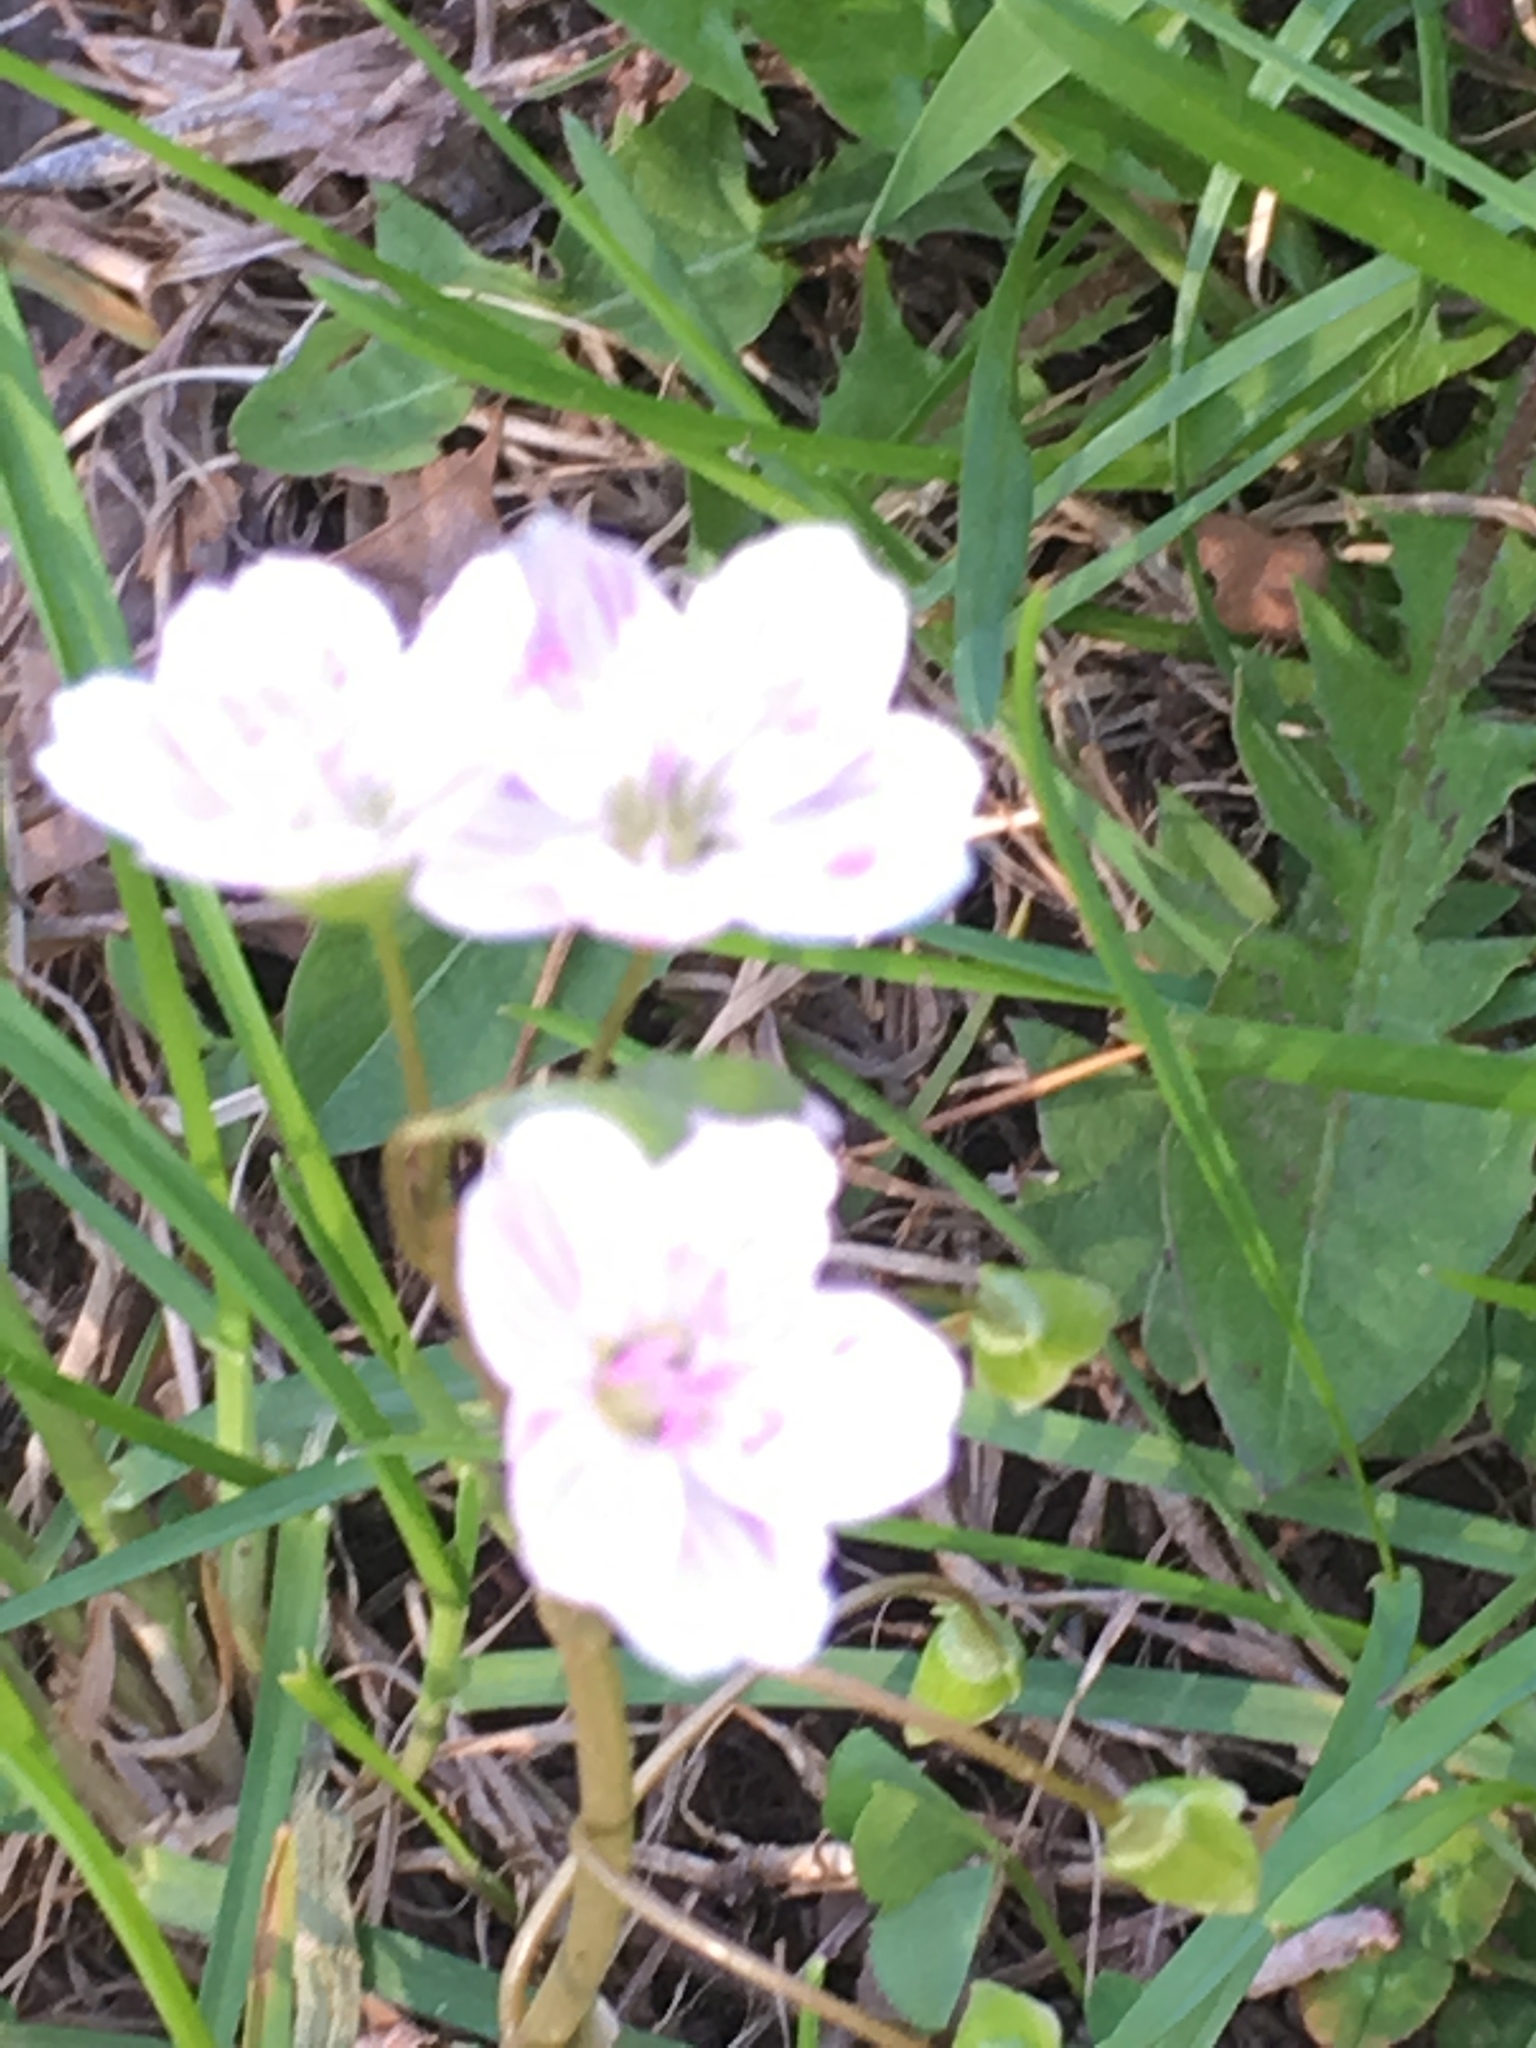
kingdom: Plantae
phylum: Tracheophyta
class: Magnoliopsida
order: Caryophyllales
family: Montiaceae
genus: Claytonia
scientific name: Claytonia virginica
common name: Virginia springbeauty
